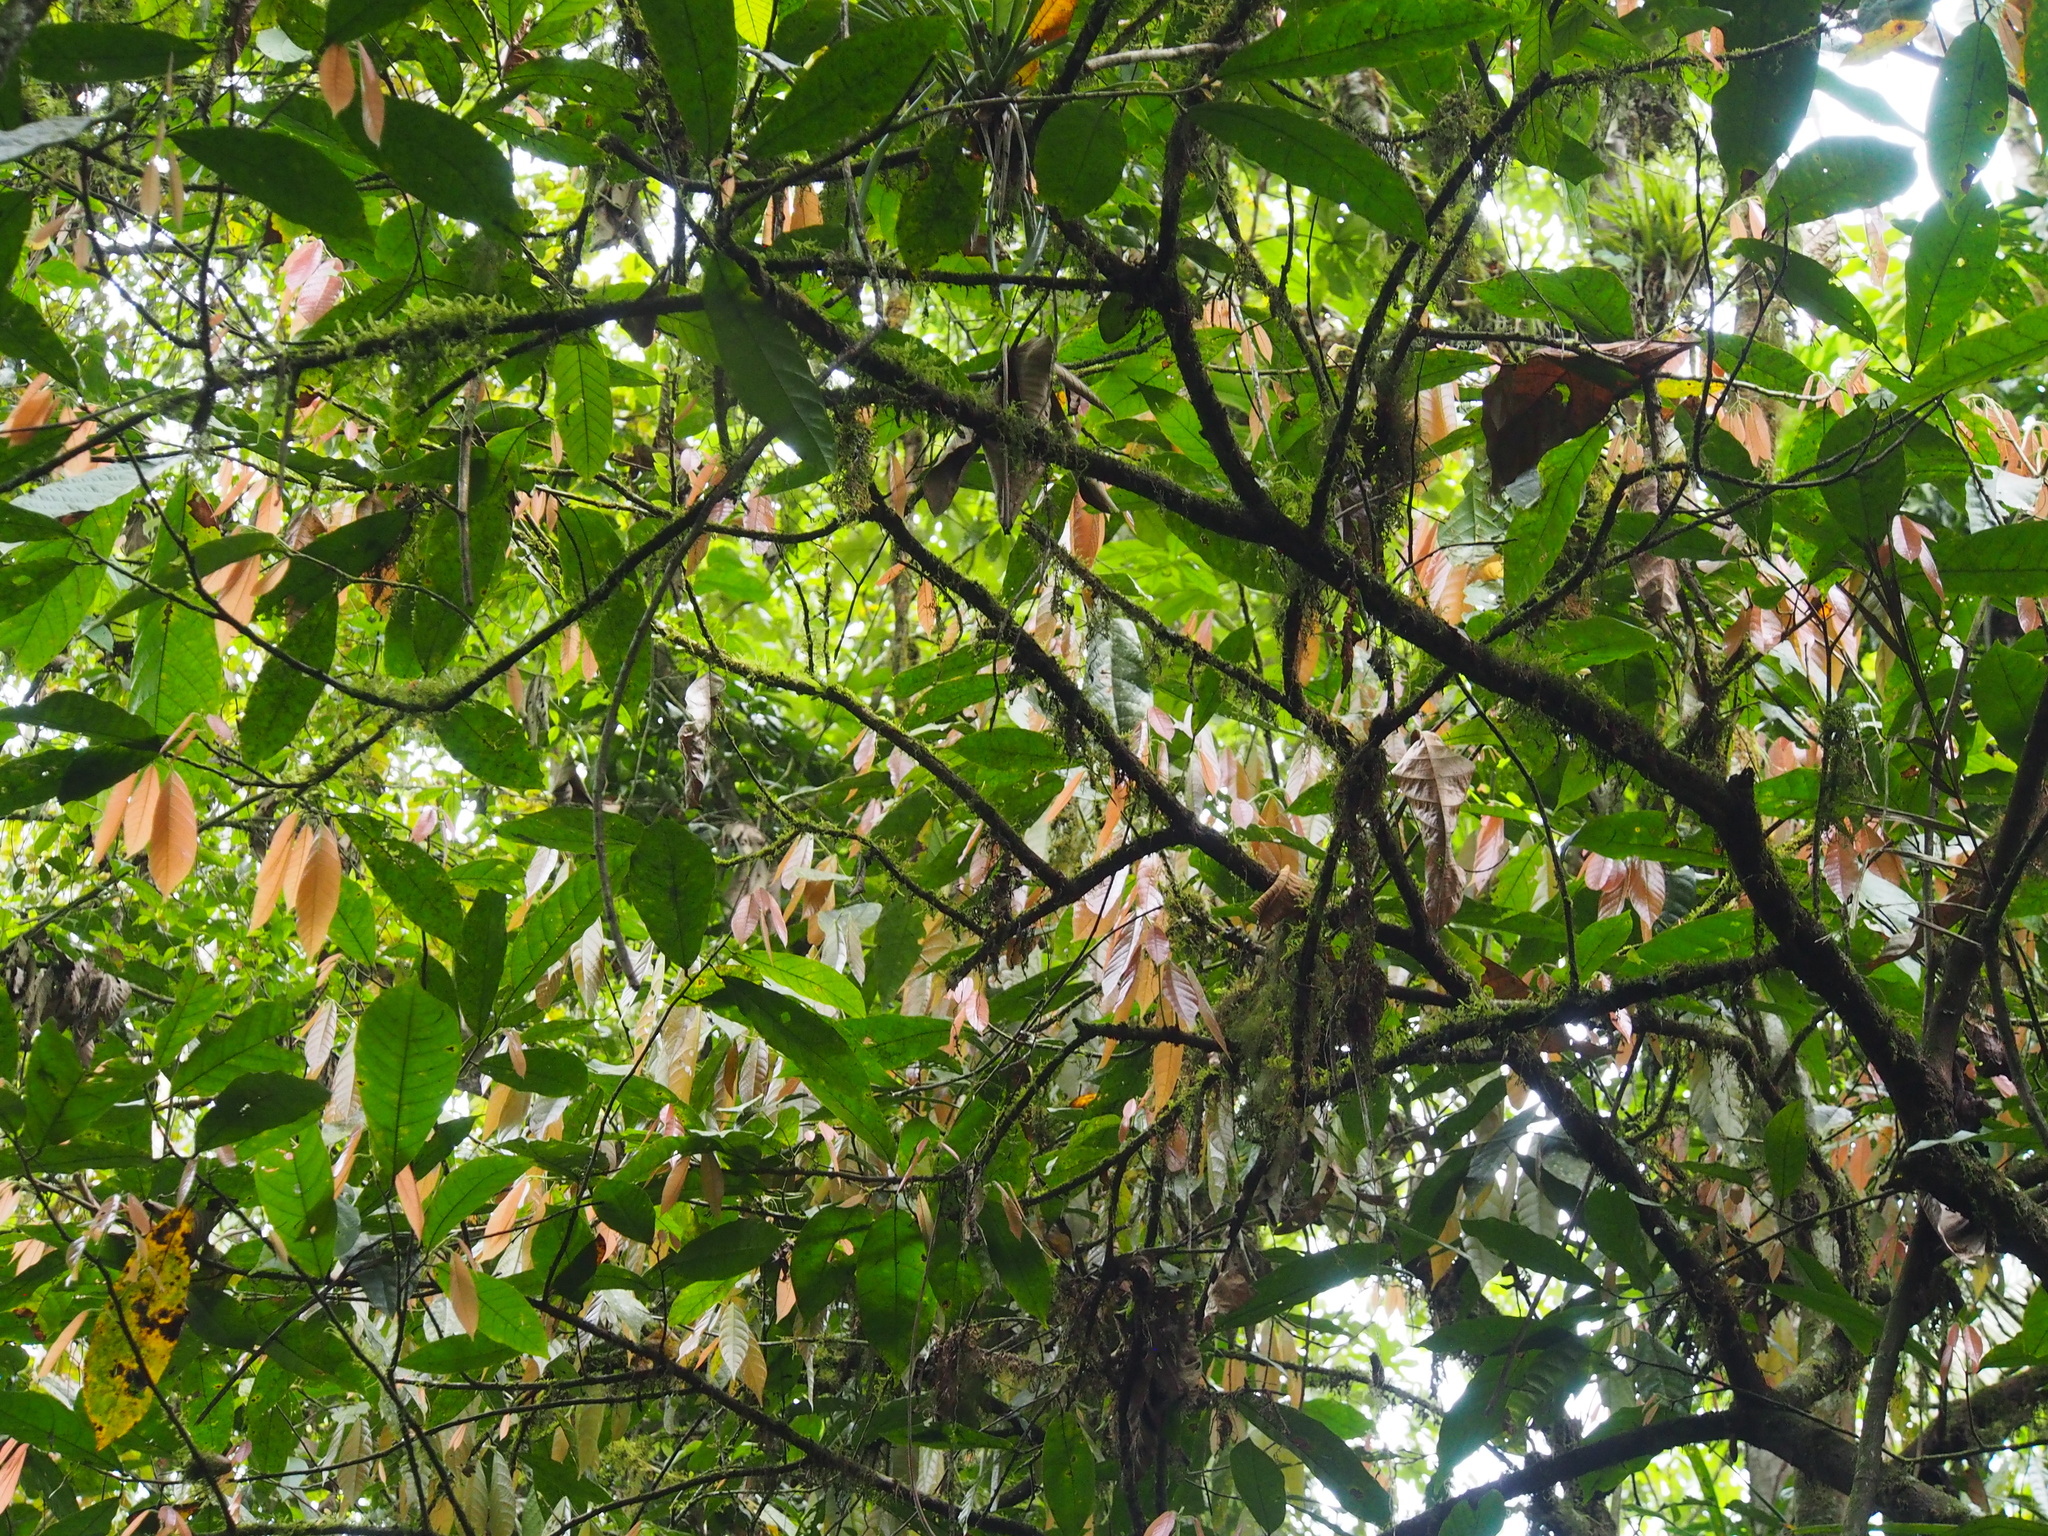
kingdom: Plantae
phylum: Tracheophyta
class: Magnoliopsida
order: Malvales
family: Malvaceae
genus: Theobroma
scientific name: Theobroma cacao
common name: Cocoa
